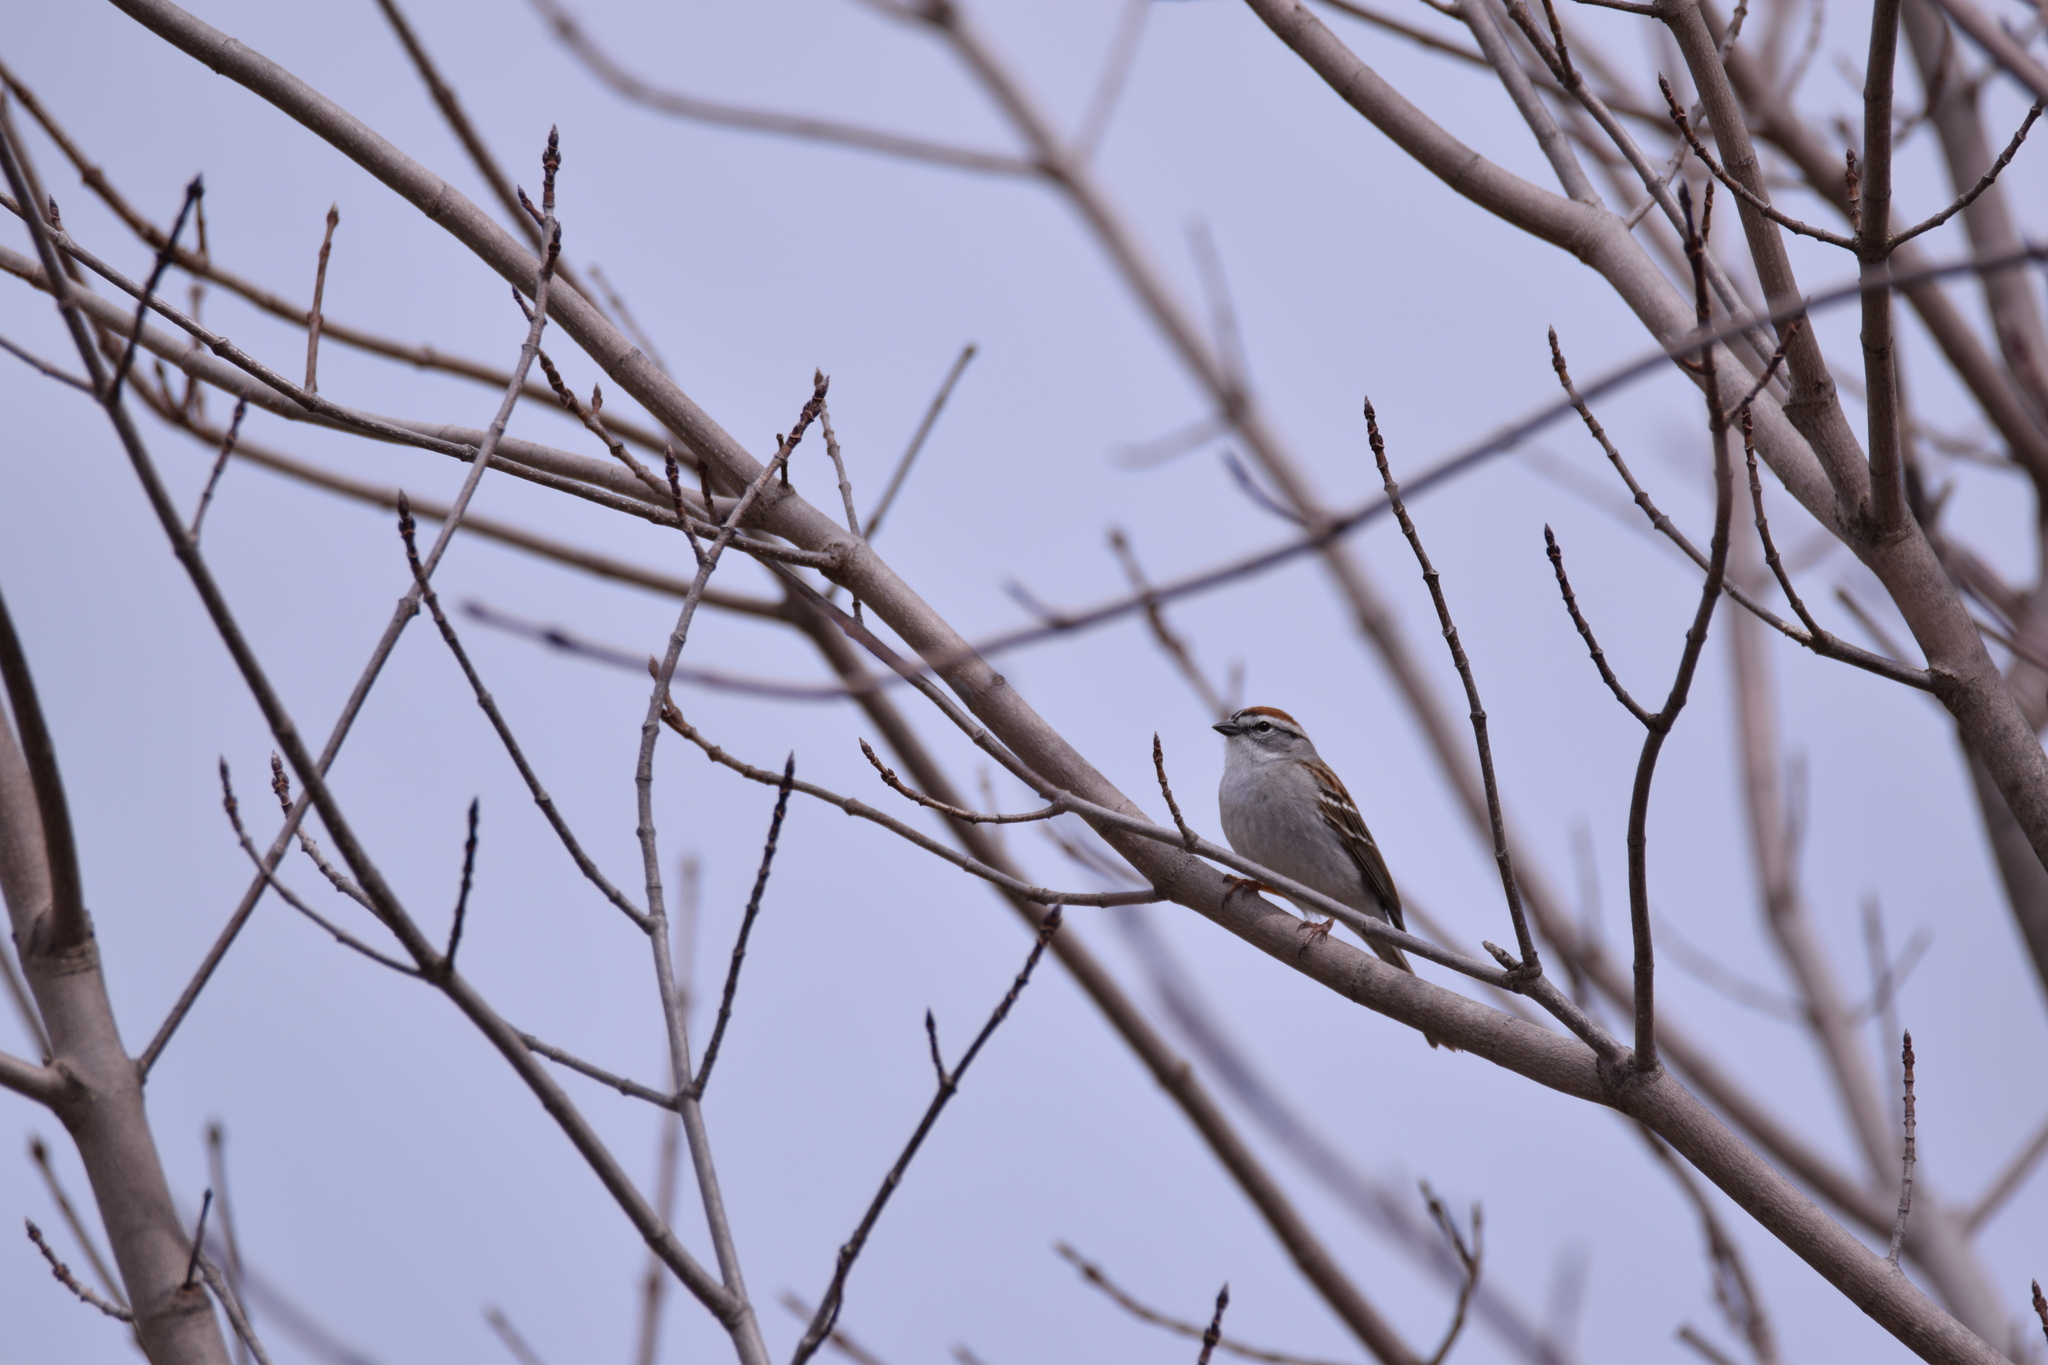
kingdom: Animalia
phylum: Chordata
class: Aves
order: Passeriformes
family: Passerellidae
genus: Spizella
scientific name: Spizella passerina
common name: Chipping sparrow
